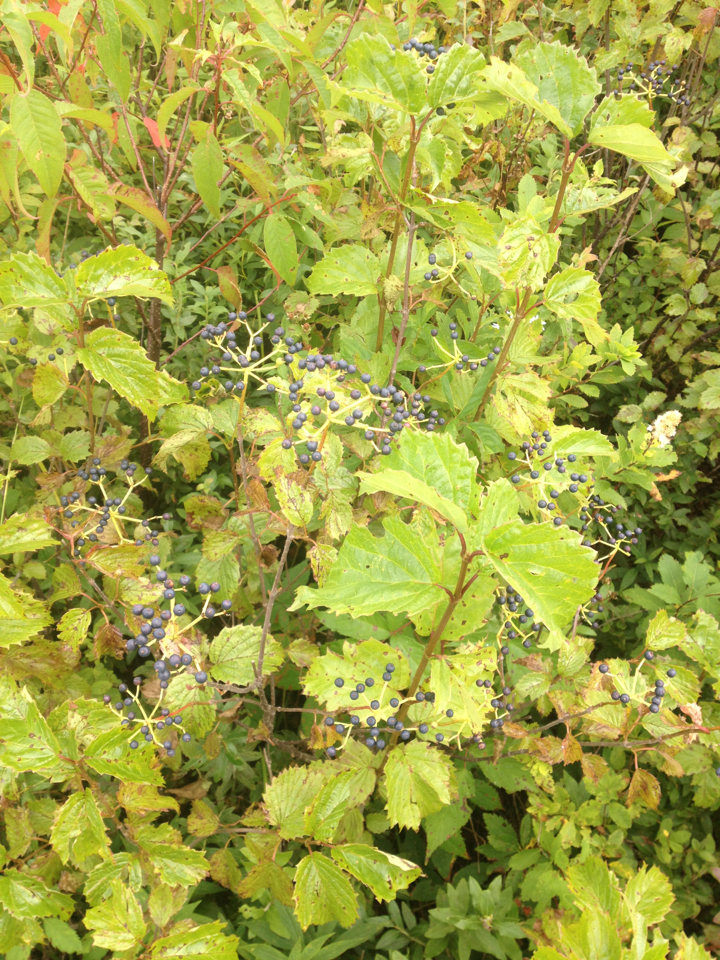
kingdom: Plantae
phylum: Tracheophyta
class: Magnoliopsida
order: Dipsacales
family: Viburnaceae
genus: Viburnum
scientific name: Viburnum dentatum
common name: Arrow-wood
